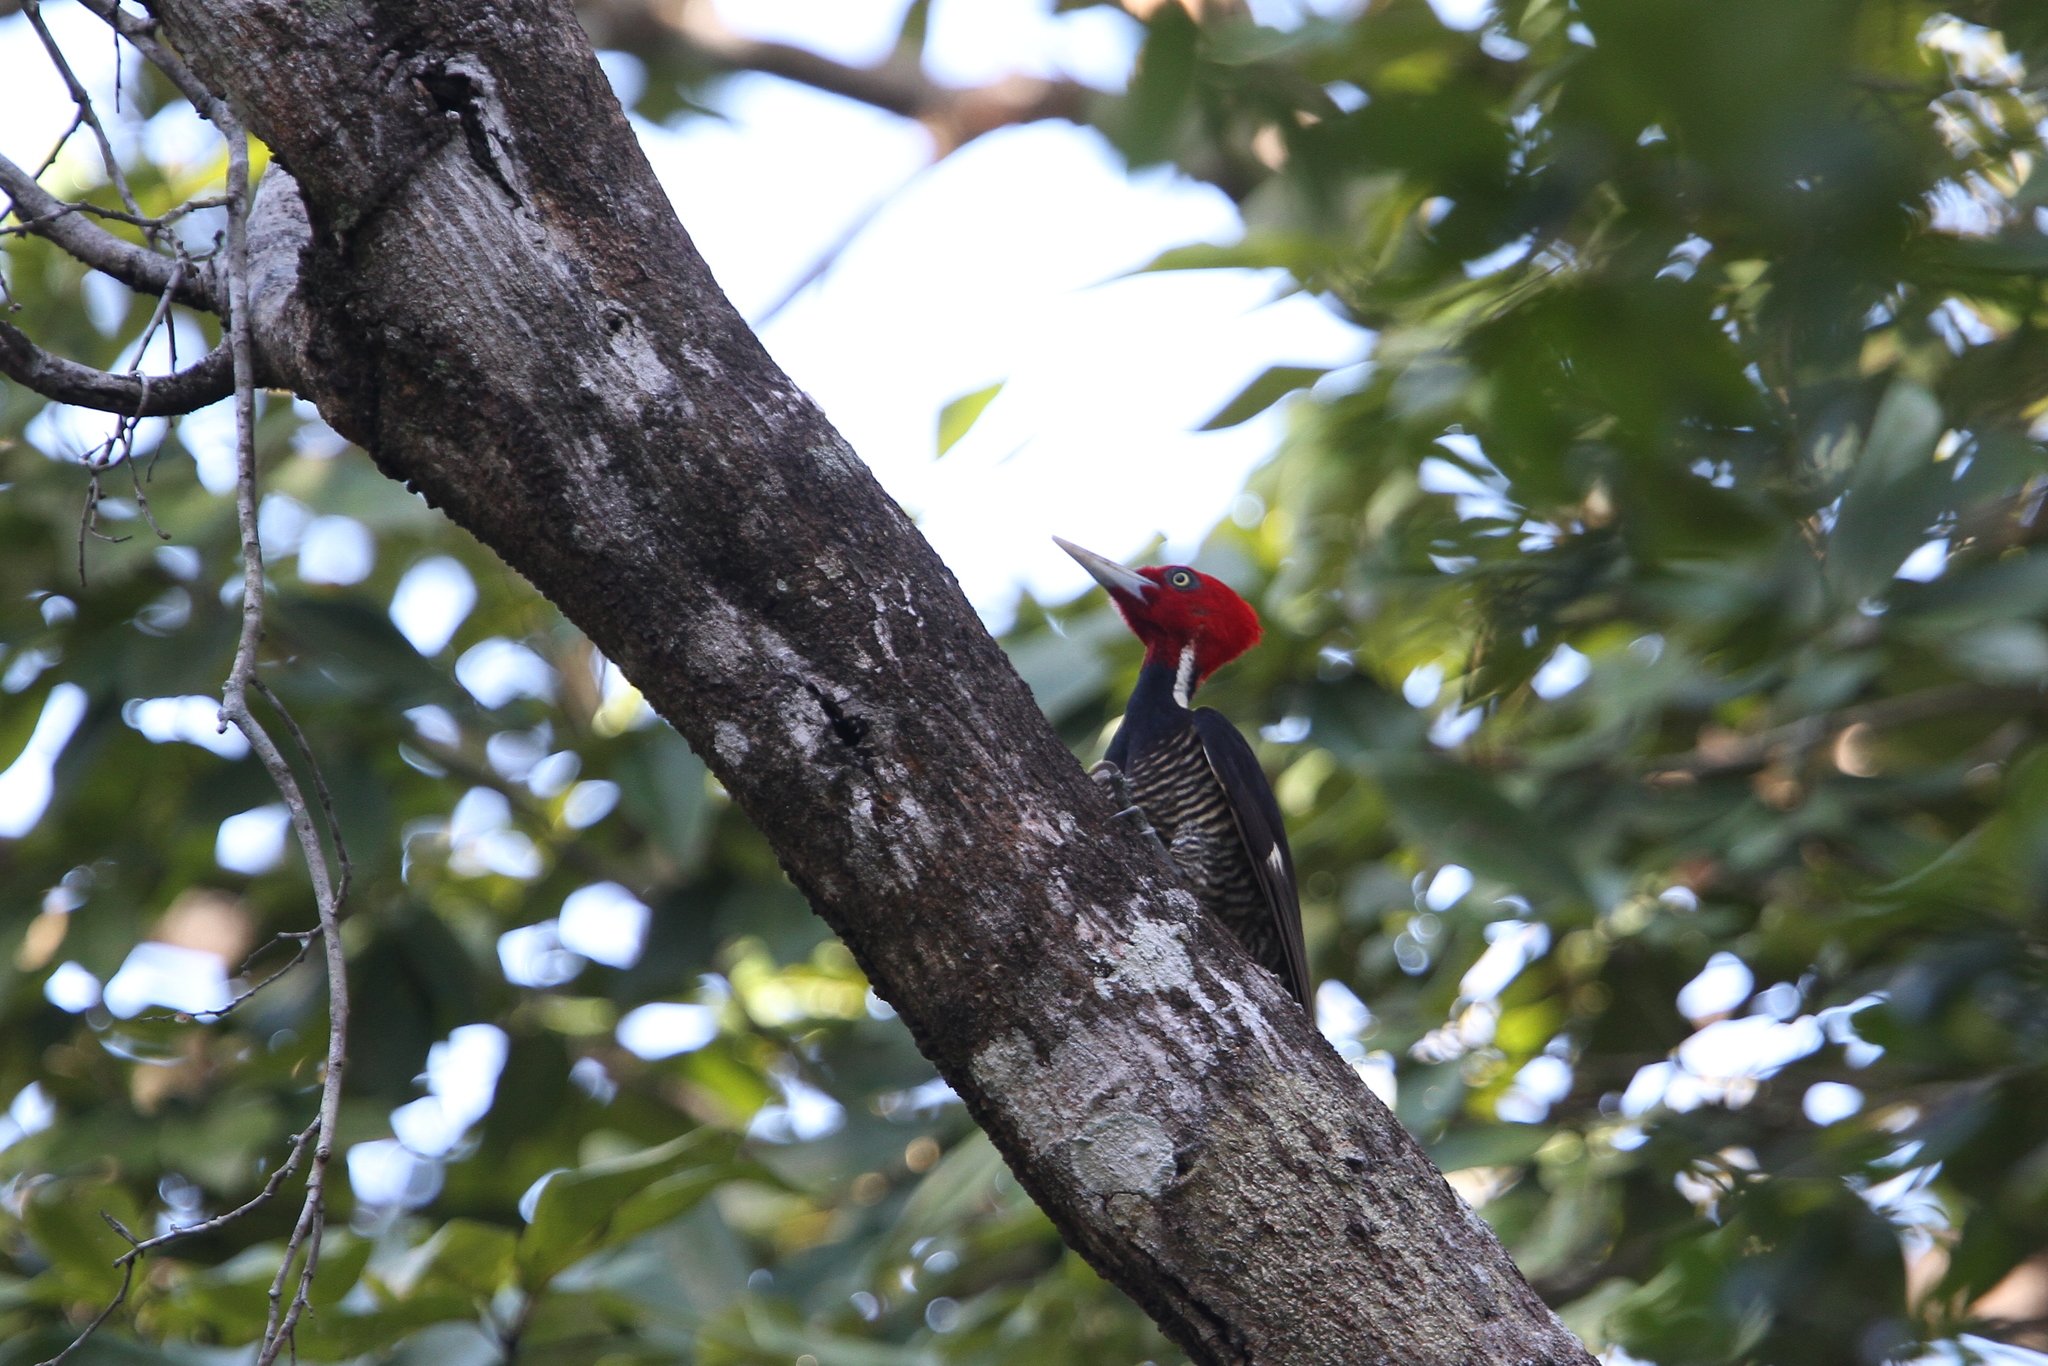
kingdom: Animalia
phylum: Chordata
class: Aves
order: Piciformes
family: Picidae
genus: Campephilus
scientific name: Campephilus guatemalensis
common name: Pale-billed woodpecker
